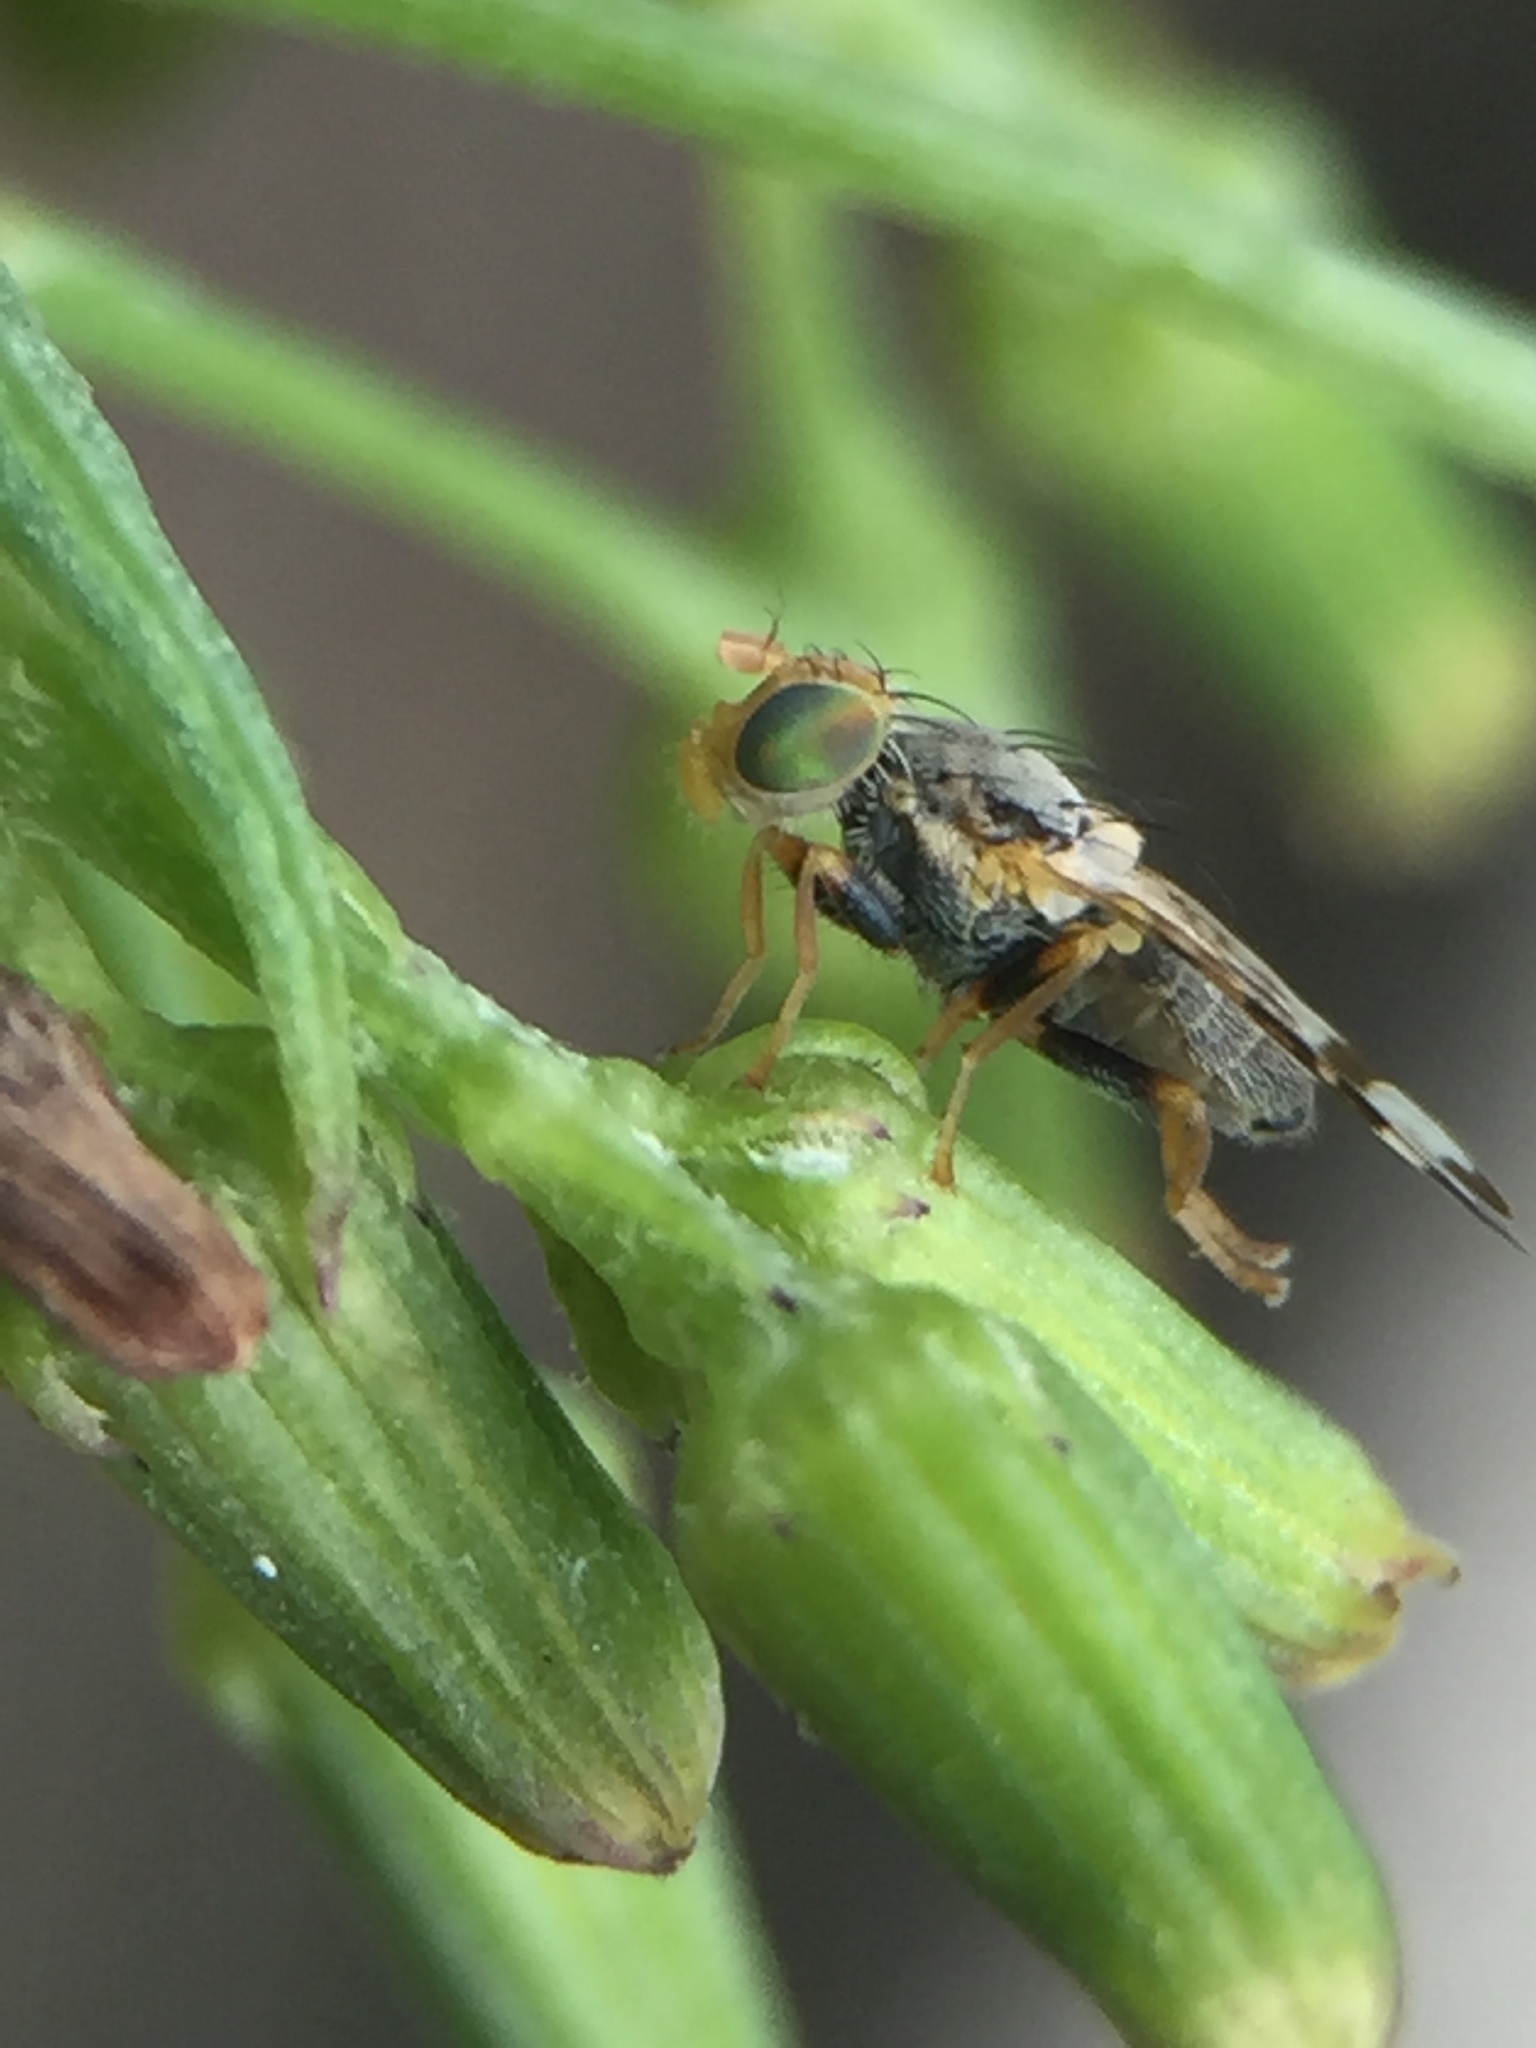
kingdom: Animalia
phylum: Arthropoda
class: Insecta
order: Diptera
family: Tephritidae
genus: Sphenella
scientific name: Sphenella ruficeps
